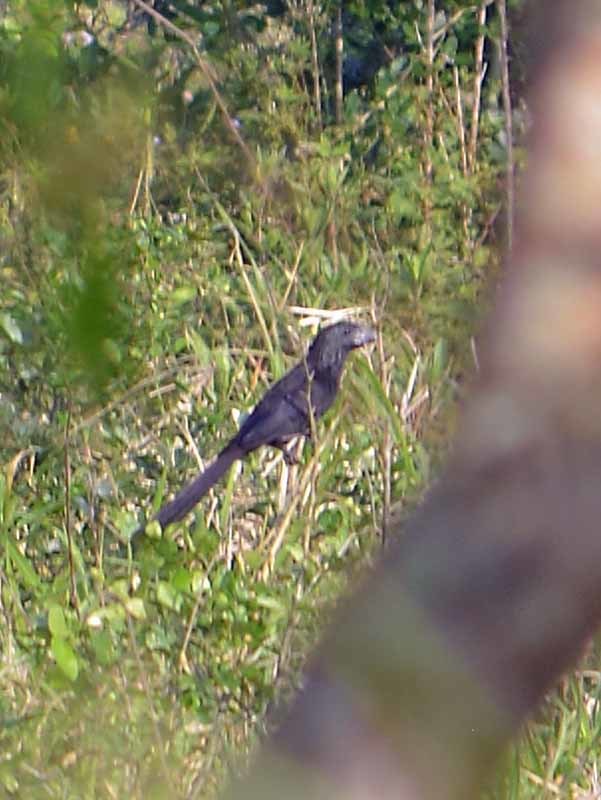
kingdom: Animalia
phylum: Chordata
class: Aves
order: Cuculiformes
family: Cuculidae
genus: Crotophaga
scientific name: Crotophaga sulcirostris
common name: Groove-billed ani
